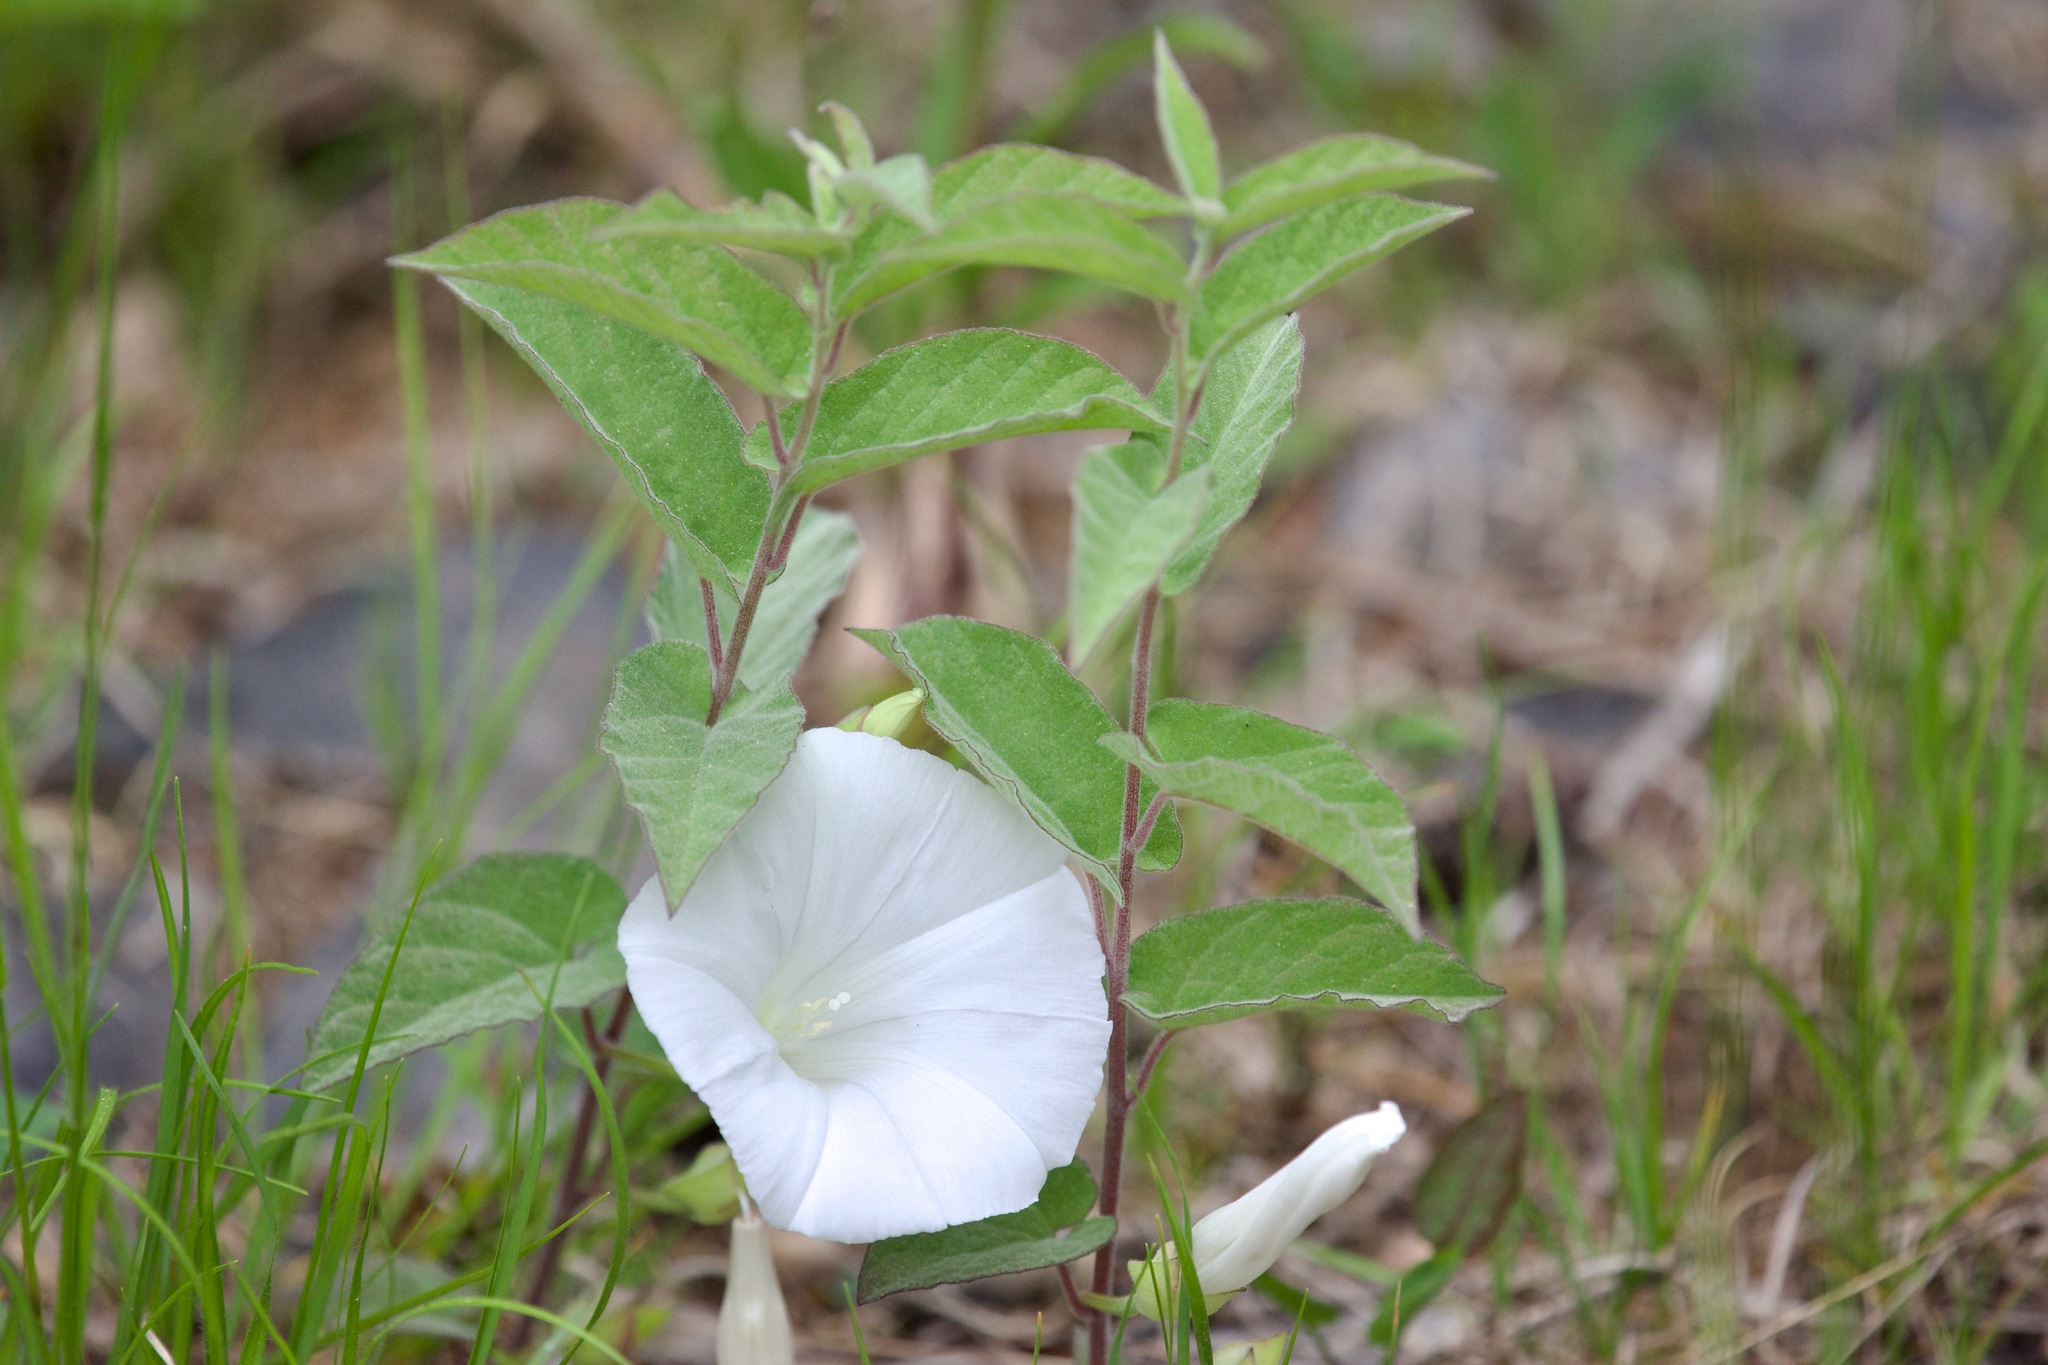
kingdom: Plantae
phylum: Tracheophyta
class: Magnoliopsida
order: Solanales
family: Convolvulaceae
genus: Calystegia
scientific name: Calystegia spithamaea
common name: Dwarf bindweed
